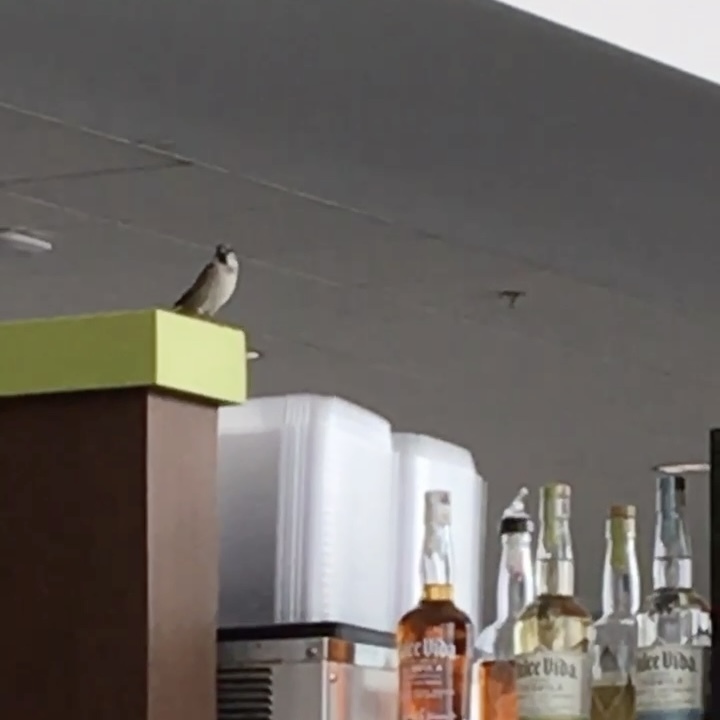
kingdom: Animalia
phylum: Chordata
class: Aves
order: Passeriformes
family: Passeridae
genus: Passer
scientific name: Passer domesticus
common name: House sparrow
